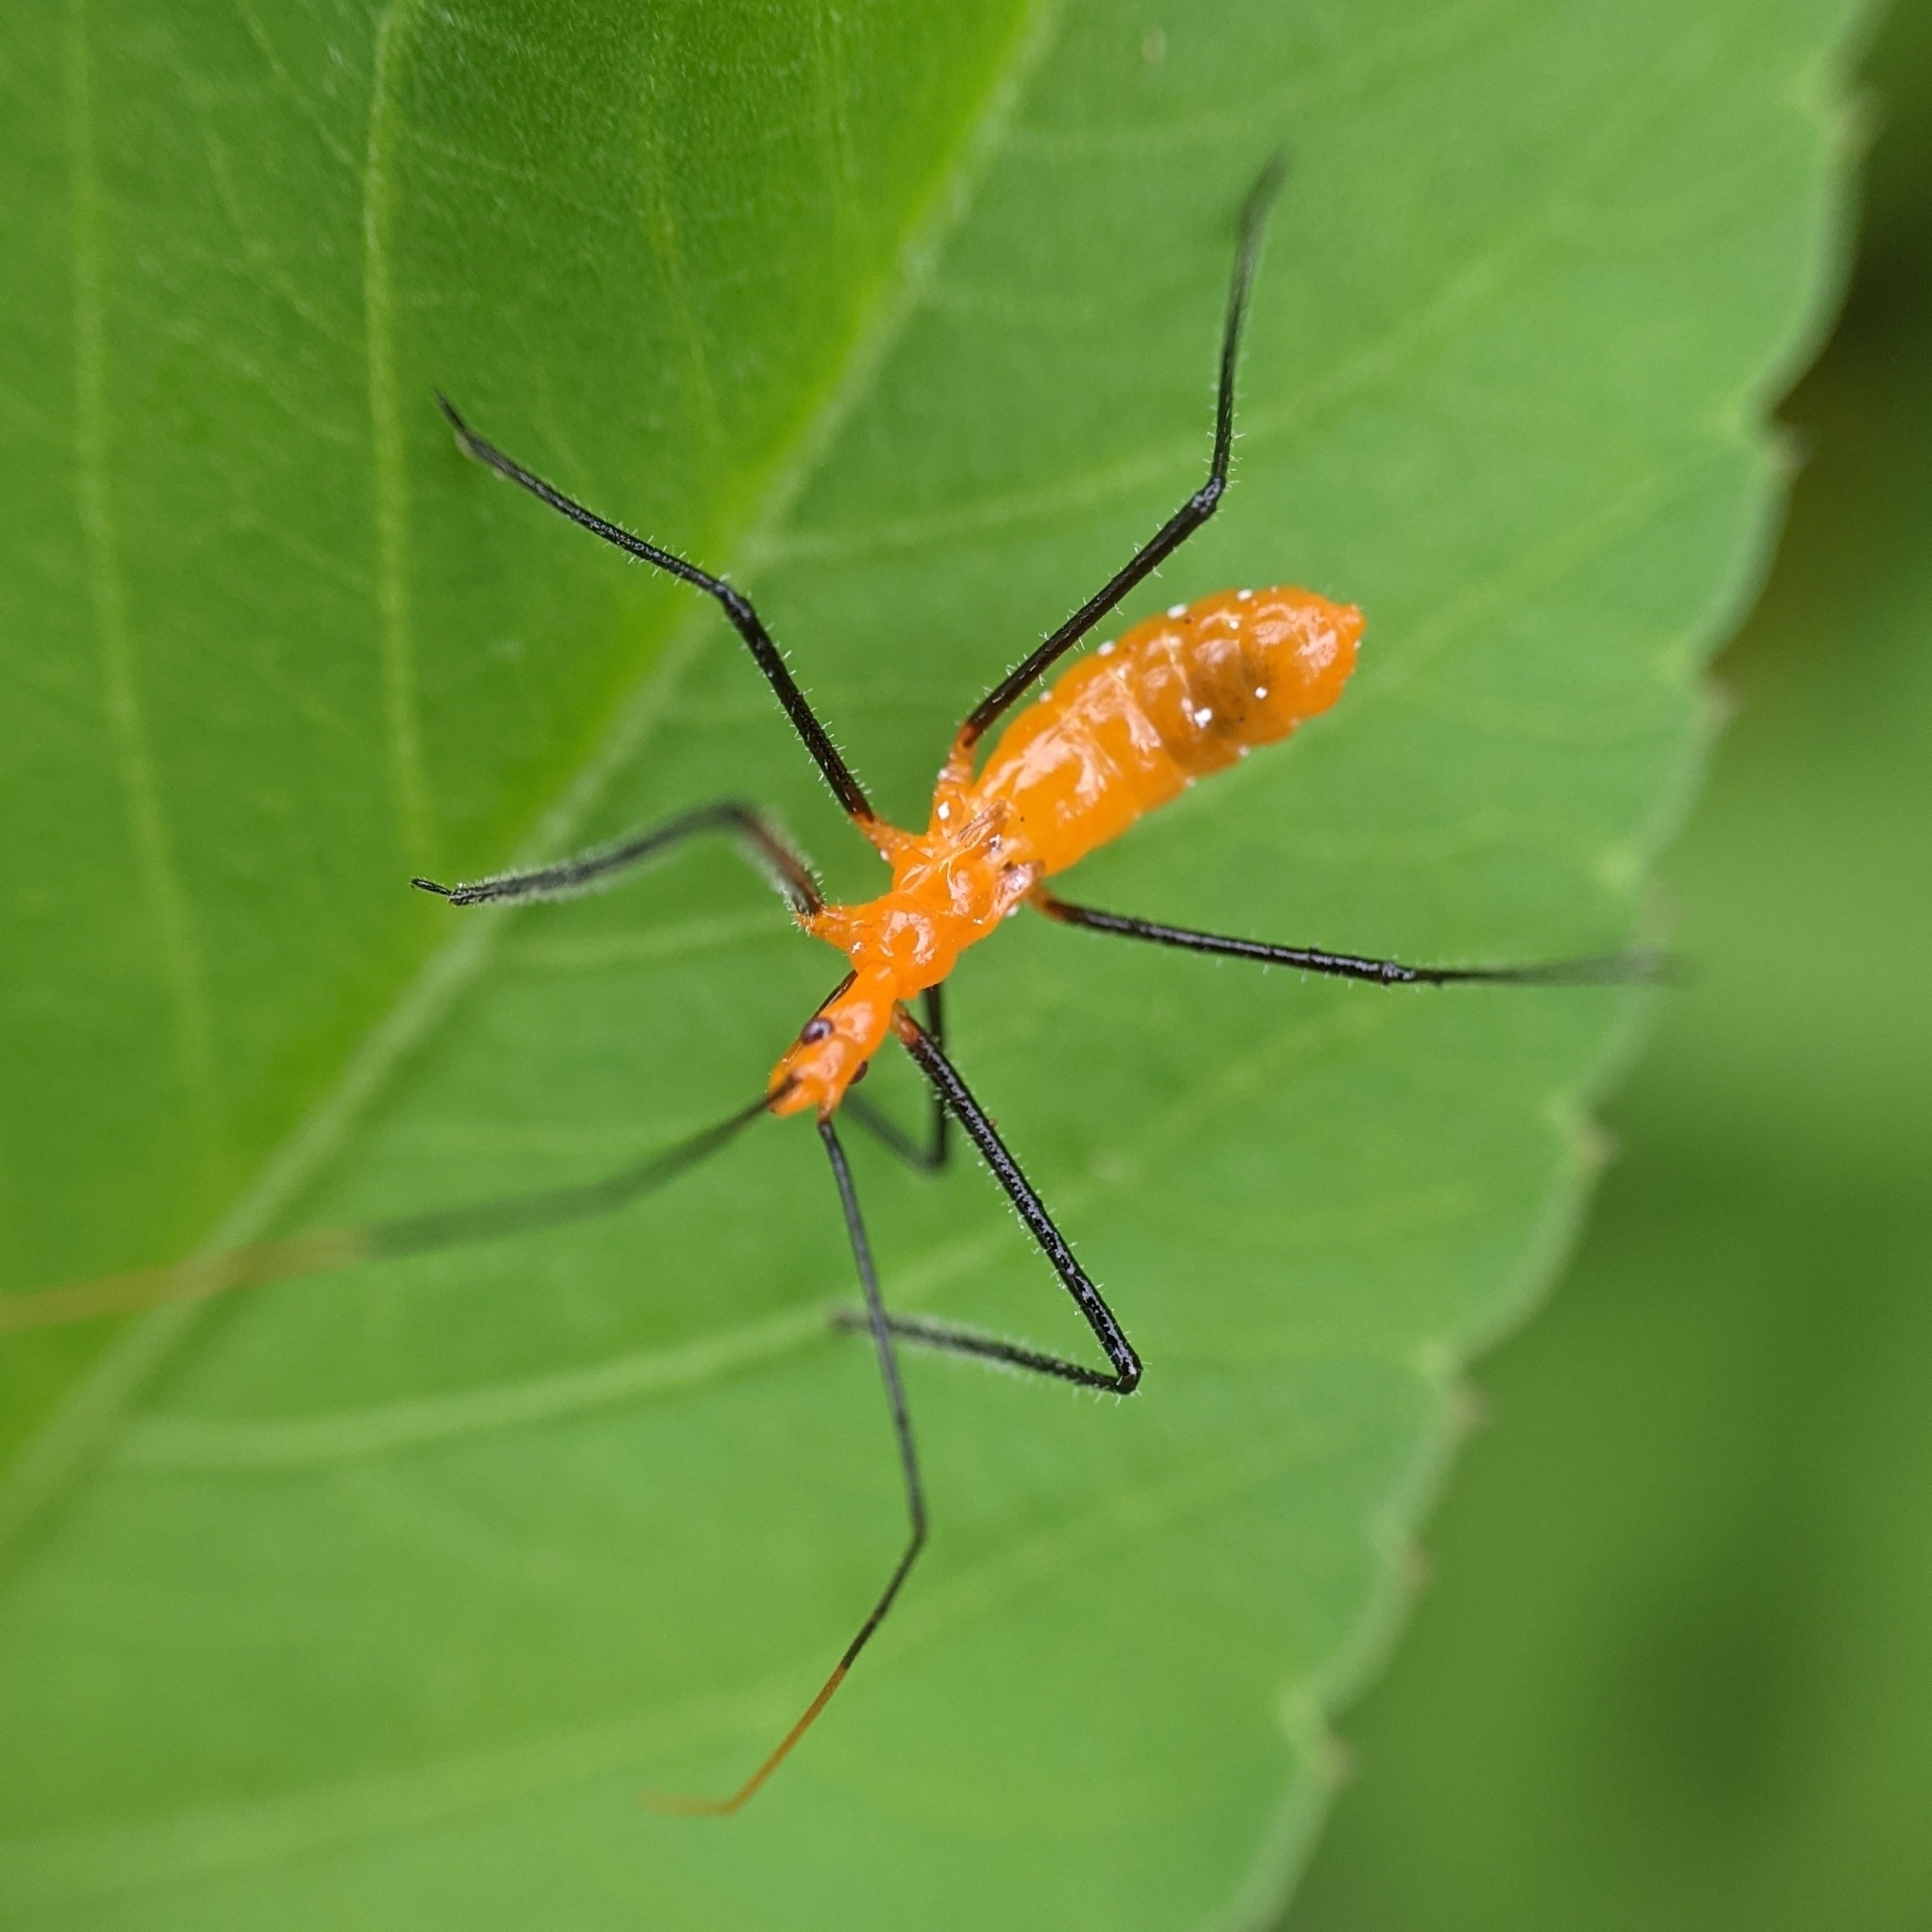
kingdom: Animalia
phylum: Arthropoda
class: Insecta
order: Hemiptera
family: Reduviidae
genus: Zelus
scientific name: Zelus longipes
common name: Milkweed assassin bug
